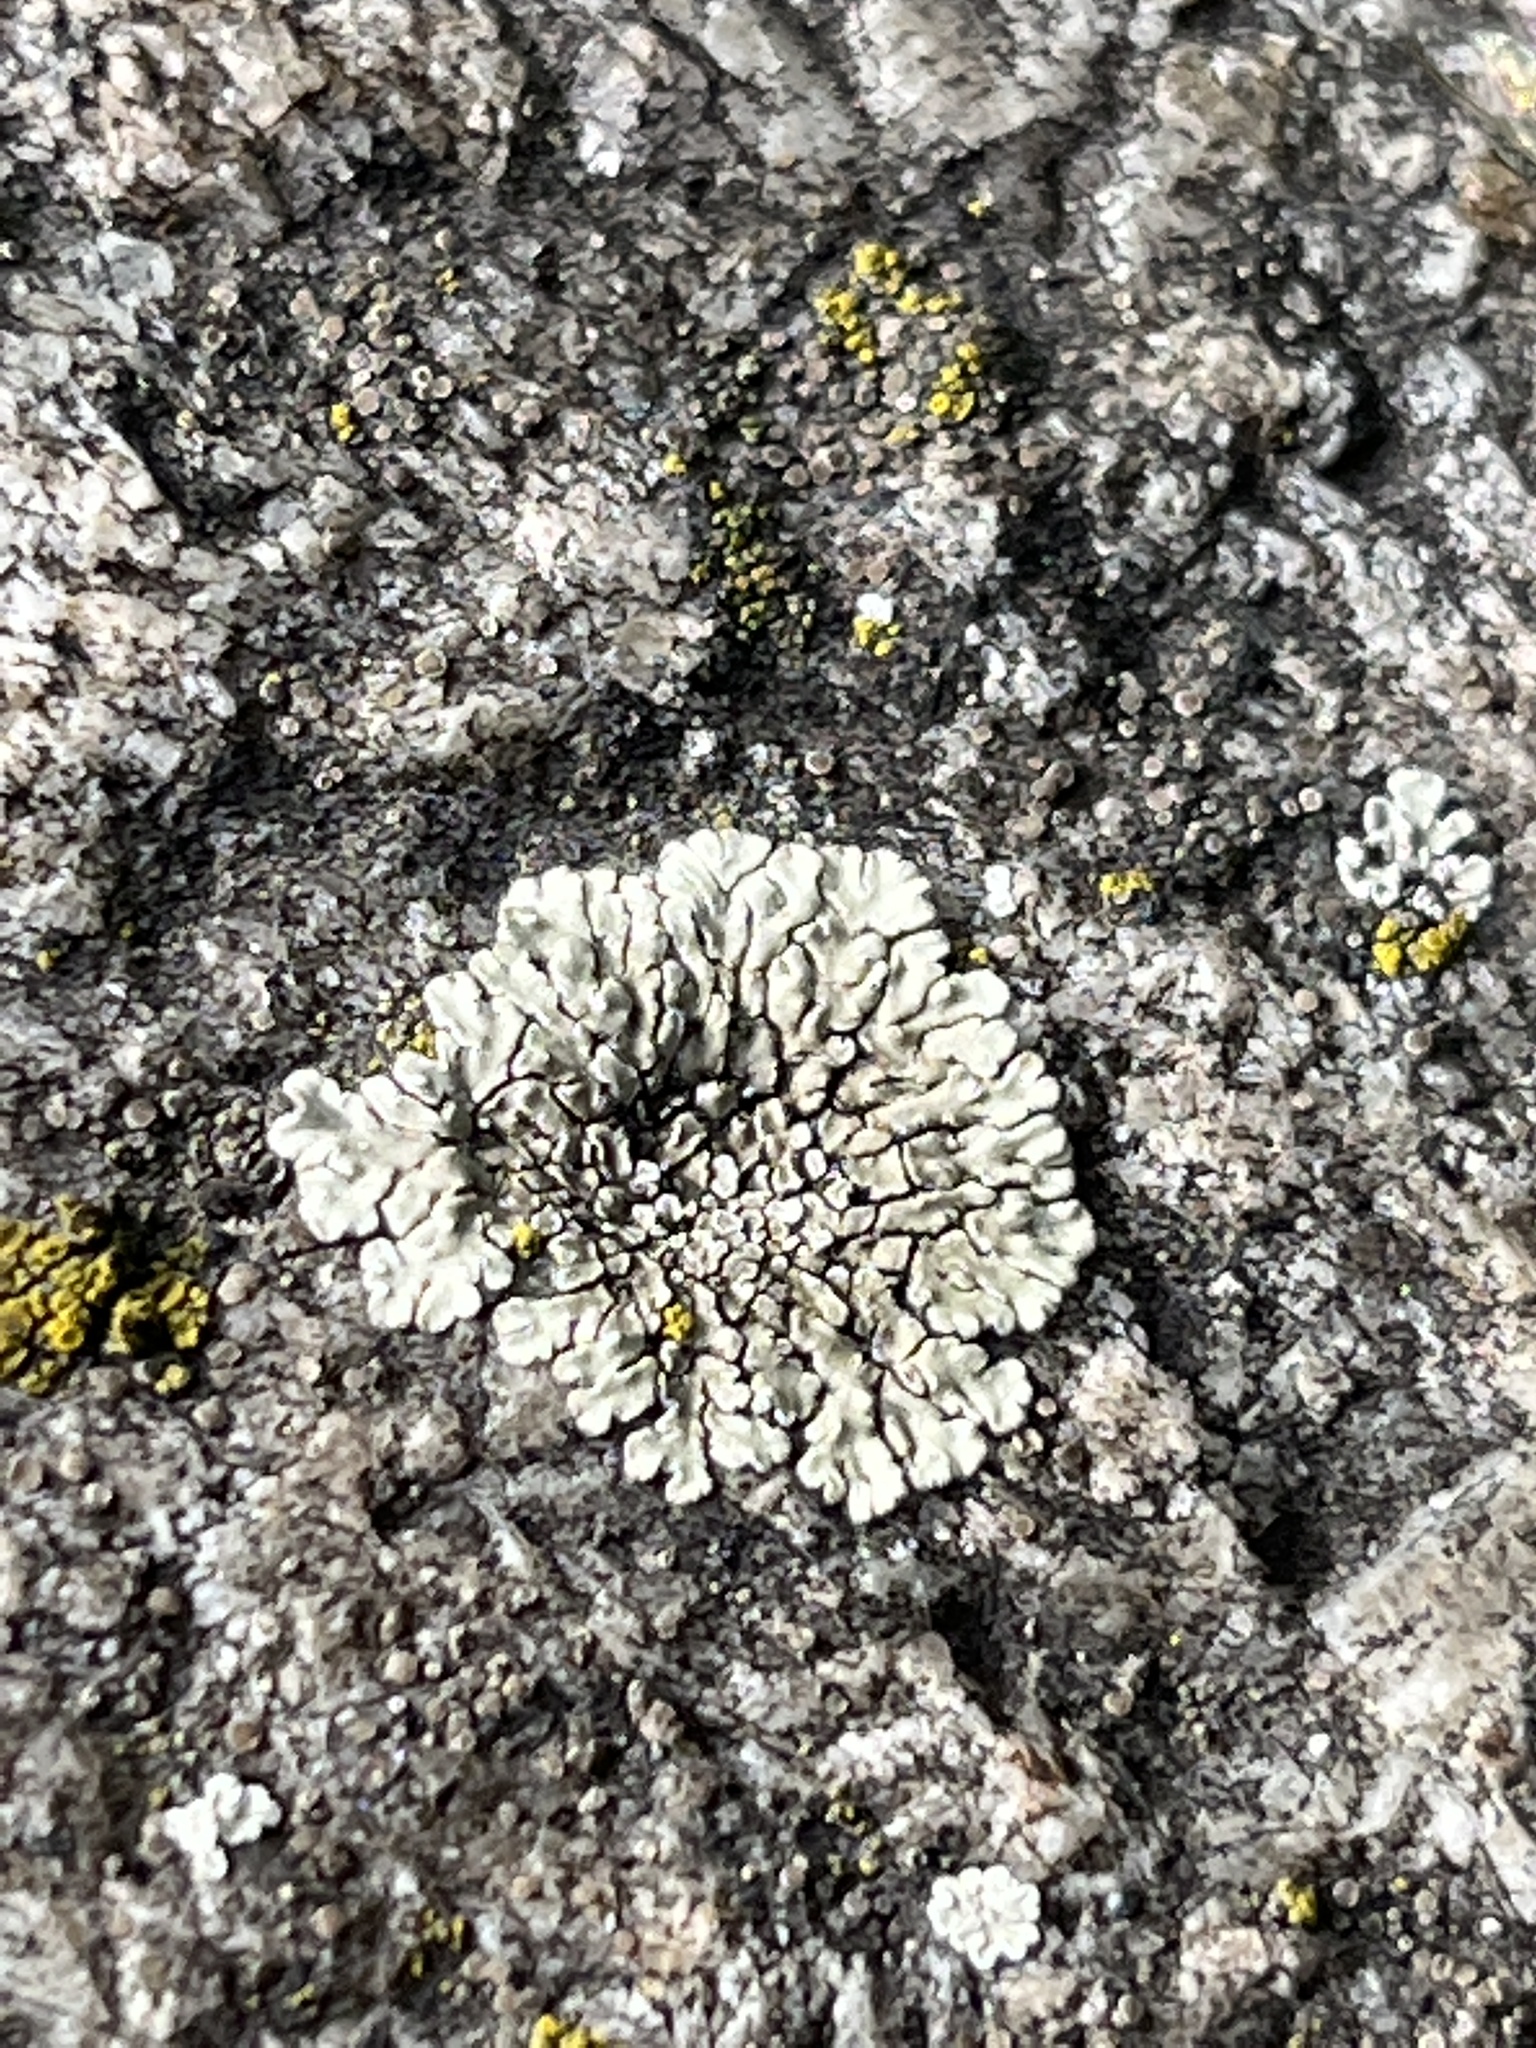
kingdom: Fungi
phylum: Ascomycota
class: Lecanoromycetes
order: Lecanorales
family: Lecanoraceae
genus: Protoparmeliopsis
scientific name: Protoparmeliopsis muralis
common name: Stonewall rim lichen
